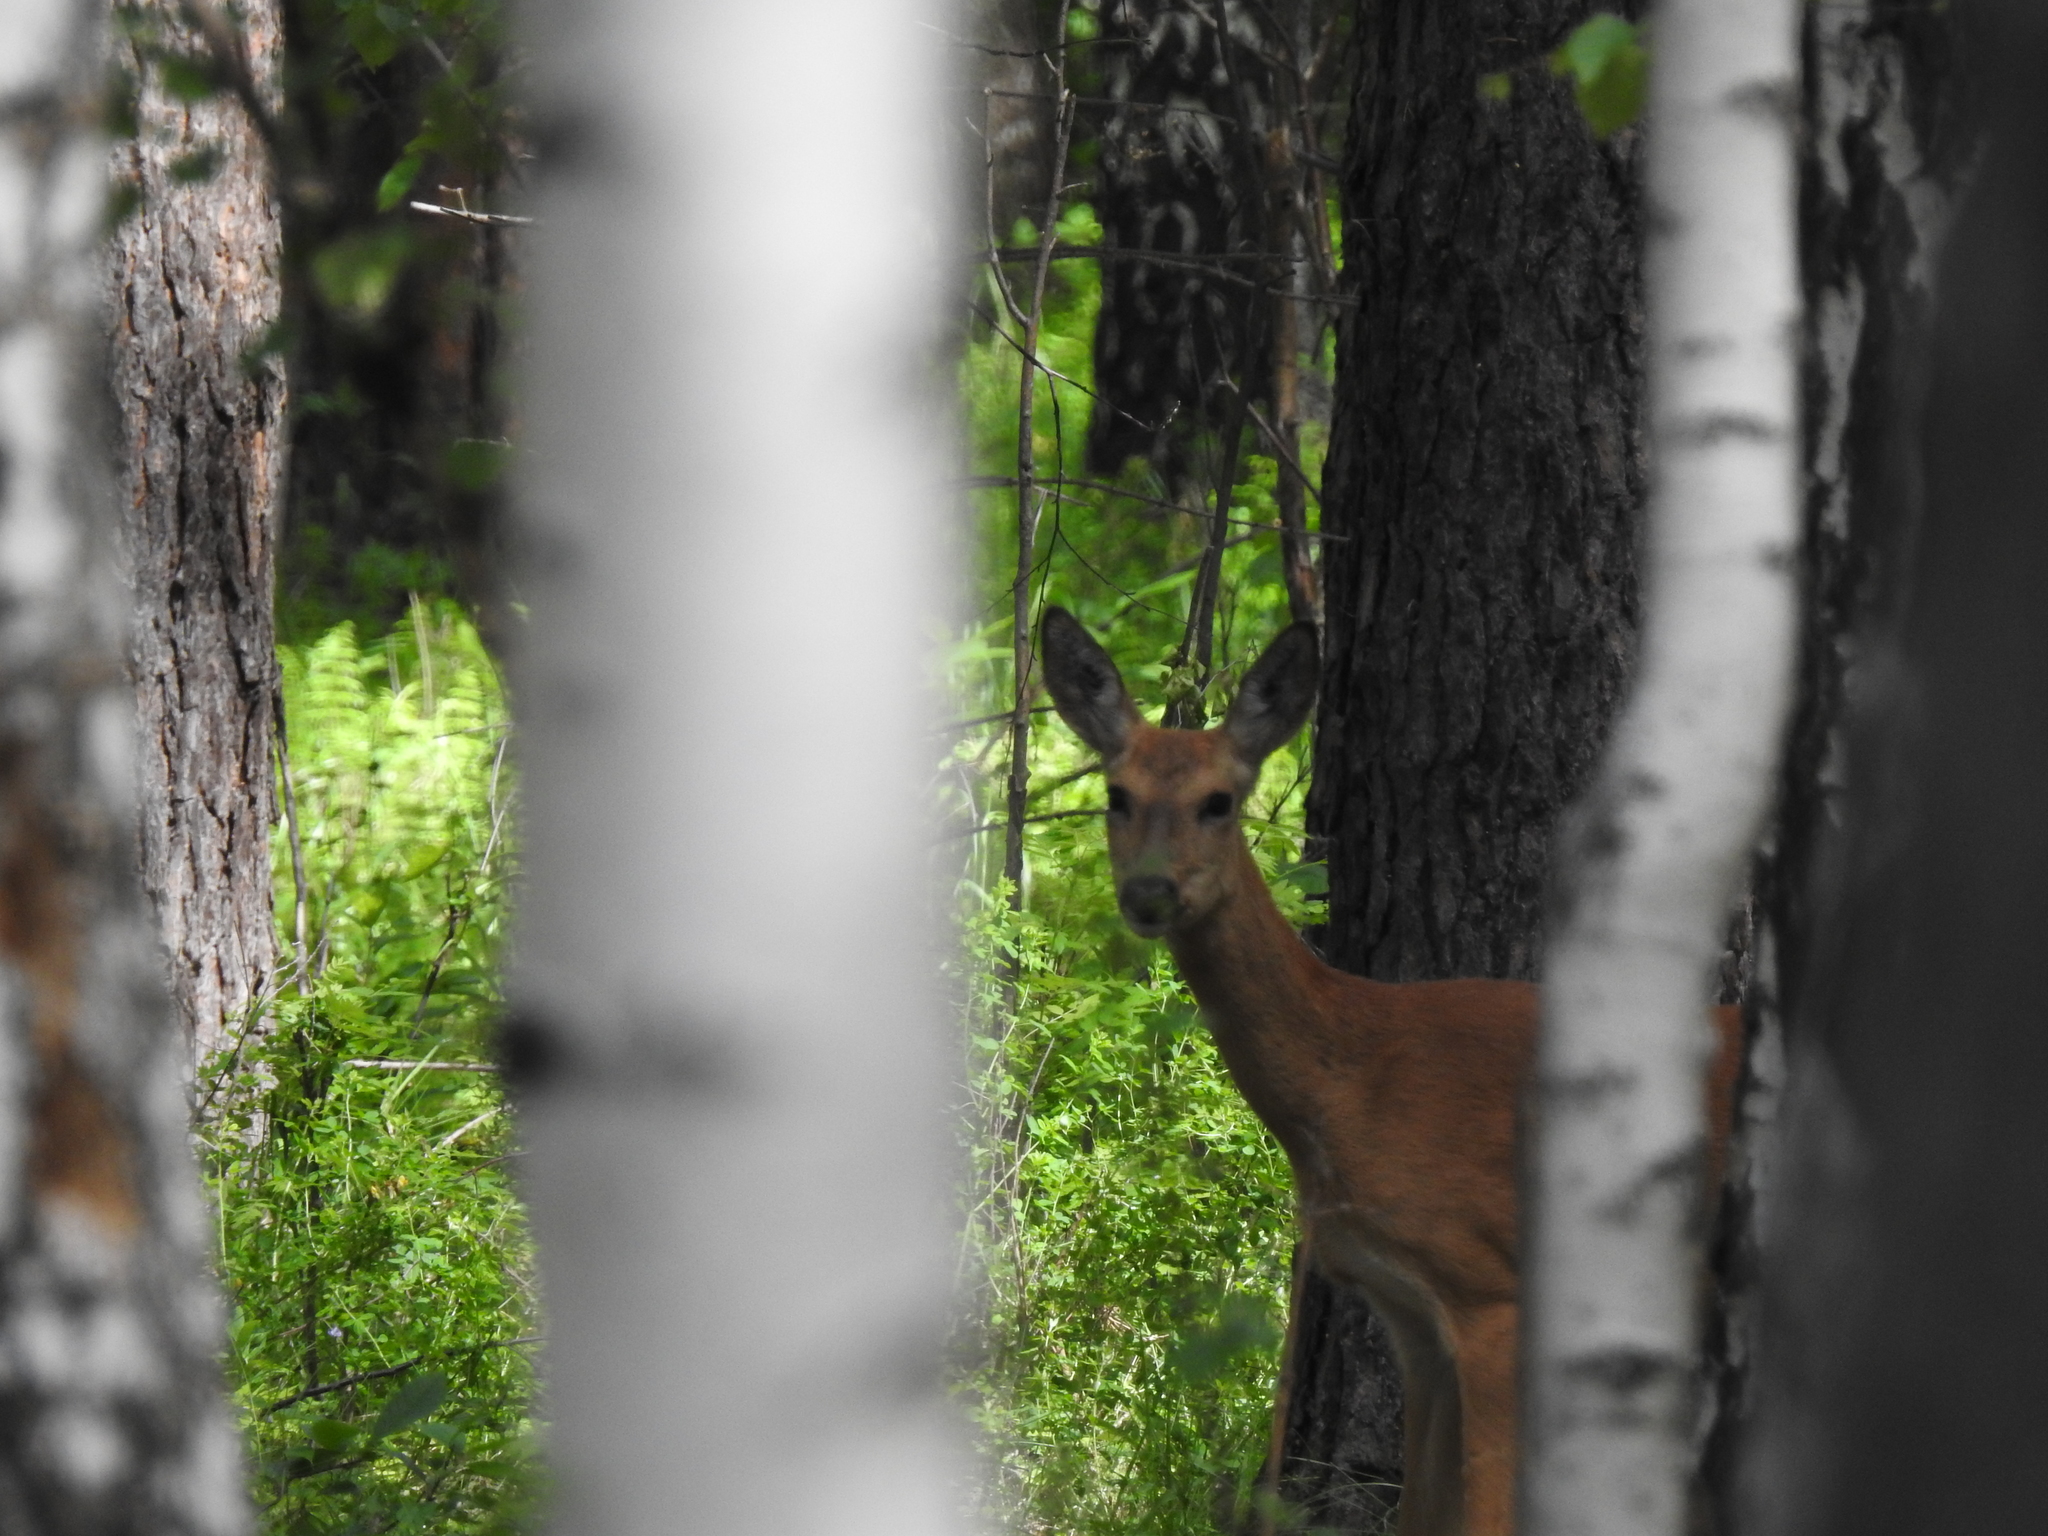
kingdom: Animalia
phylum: Chordata
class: Mammalia
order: Artiodactyla
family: Cervidae
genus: Capreolus
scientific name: Capreolus pygargus
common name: Siberian roe
